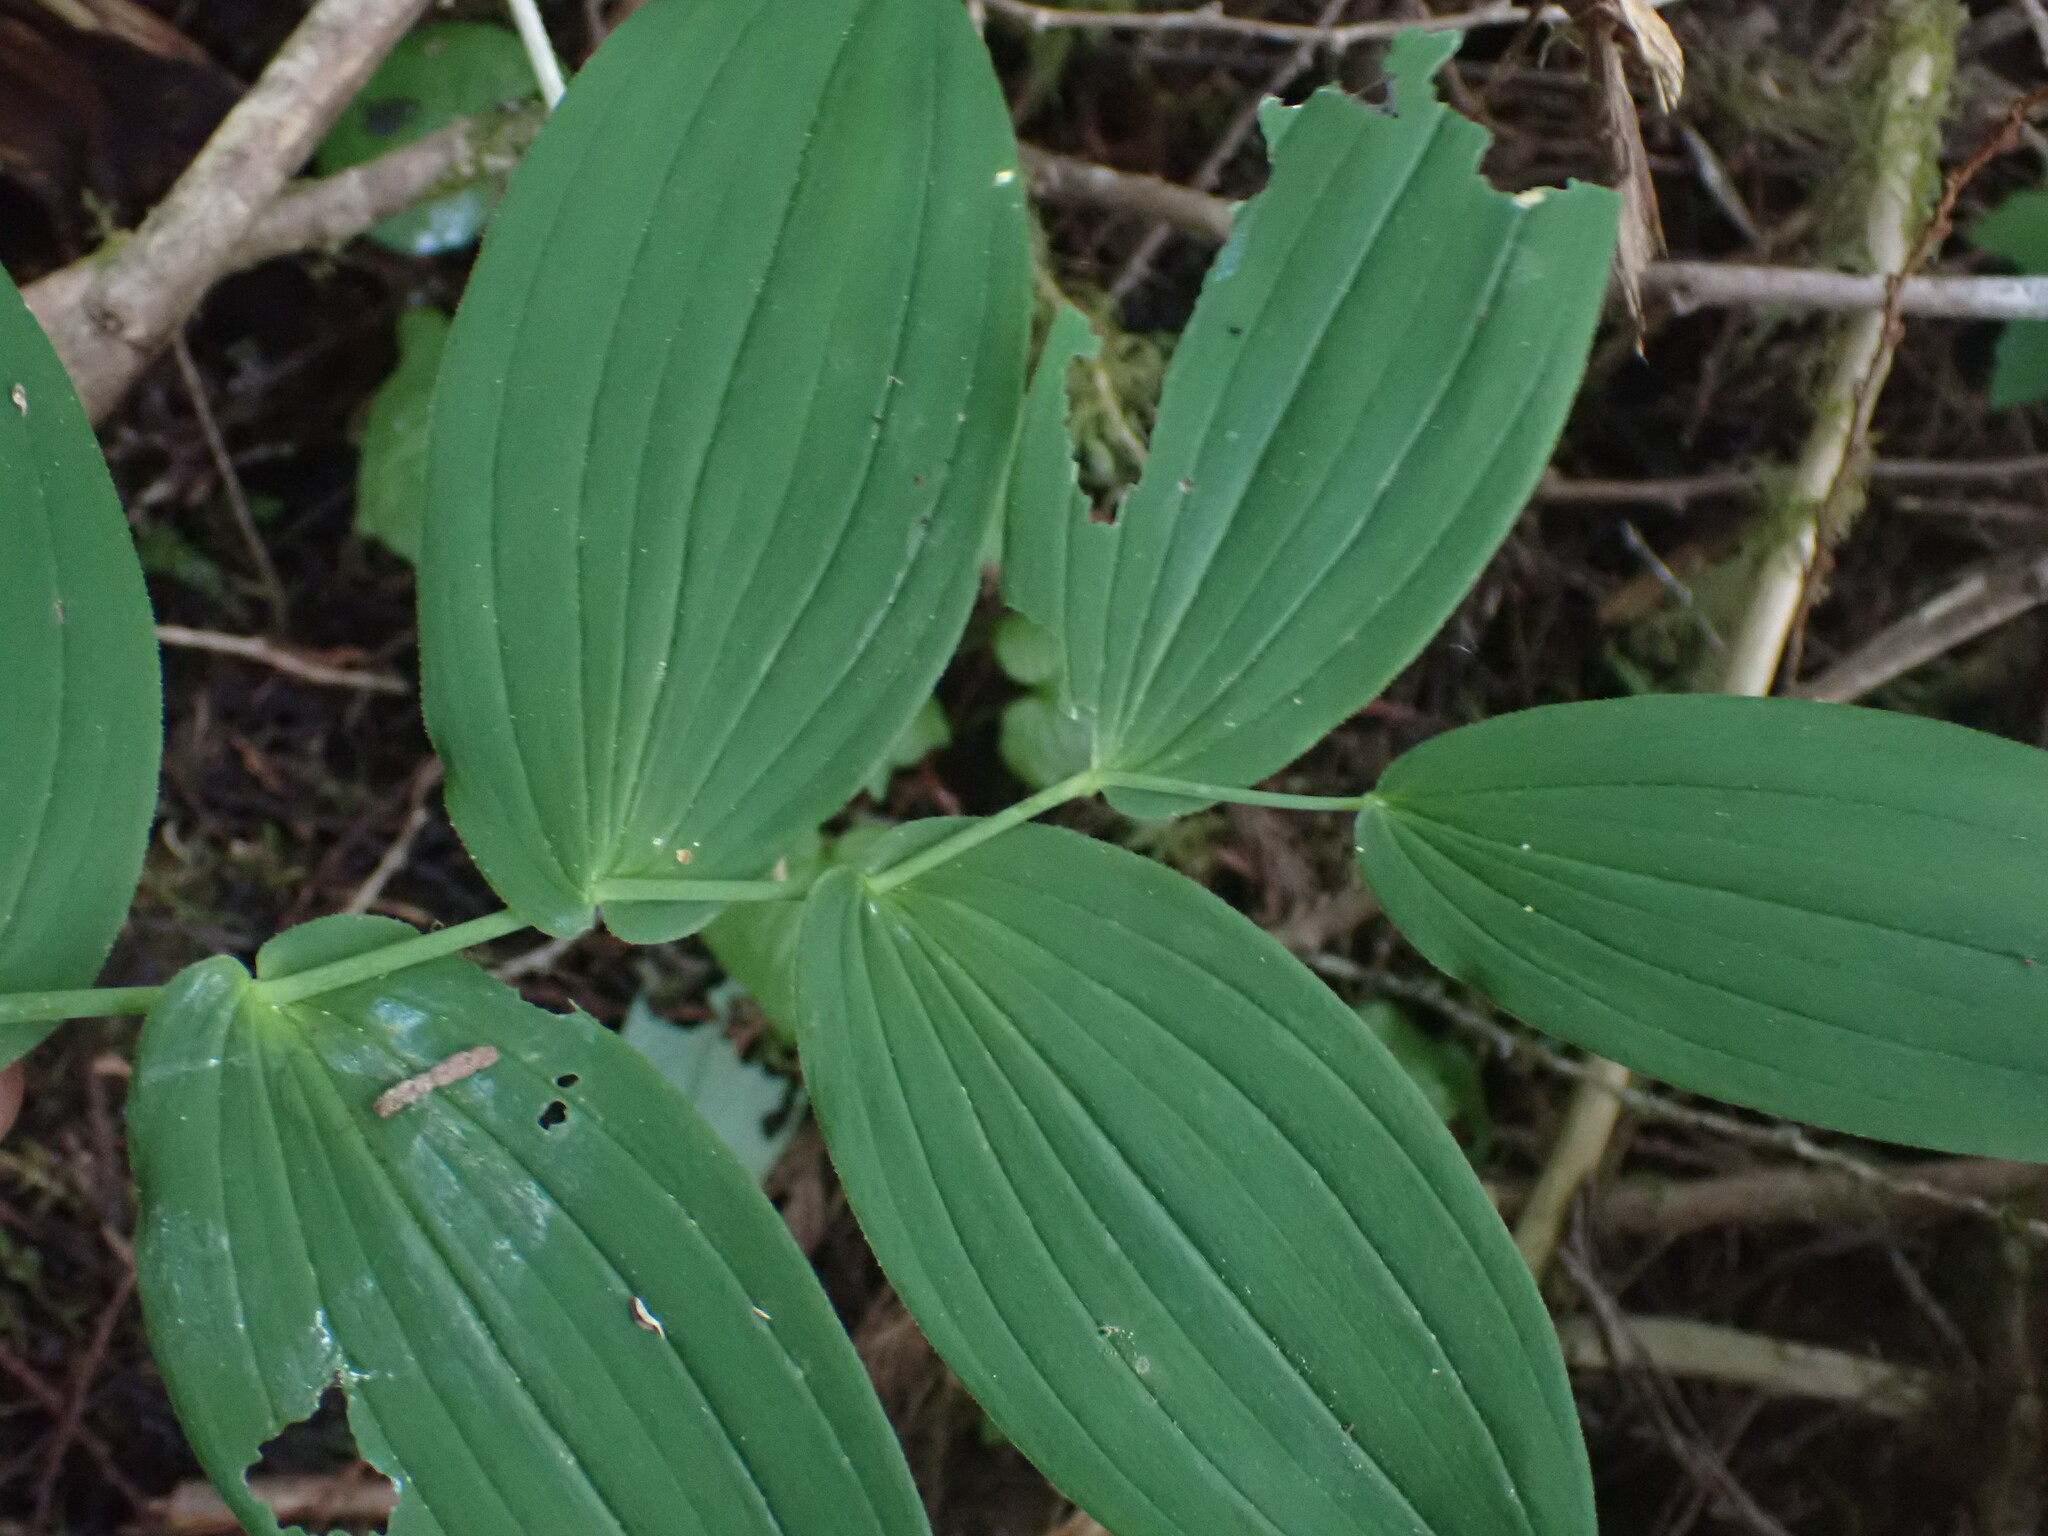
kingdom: Plantae
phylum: Tracheophyta
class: Liliopsida
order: Liliales
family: Liliaceae
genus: Streptopus
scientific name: Streptopus amplexifolius
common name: Clasp twisted stalk
